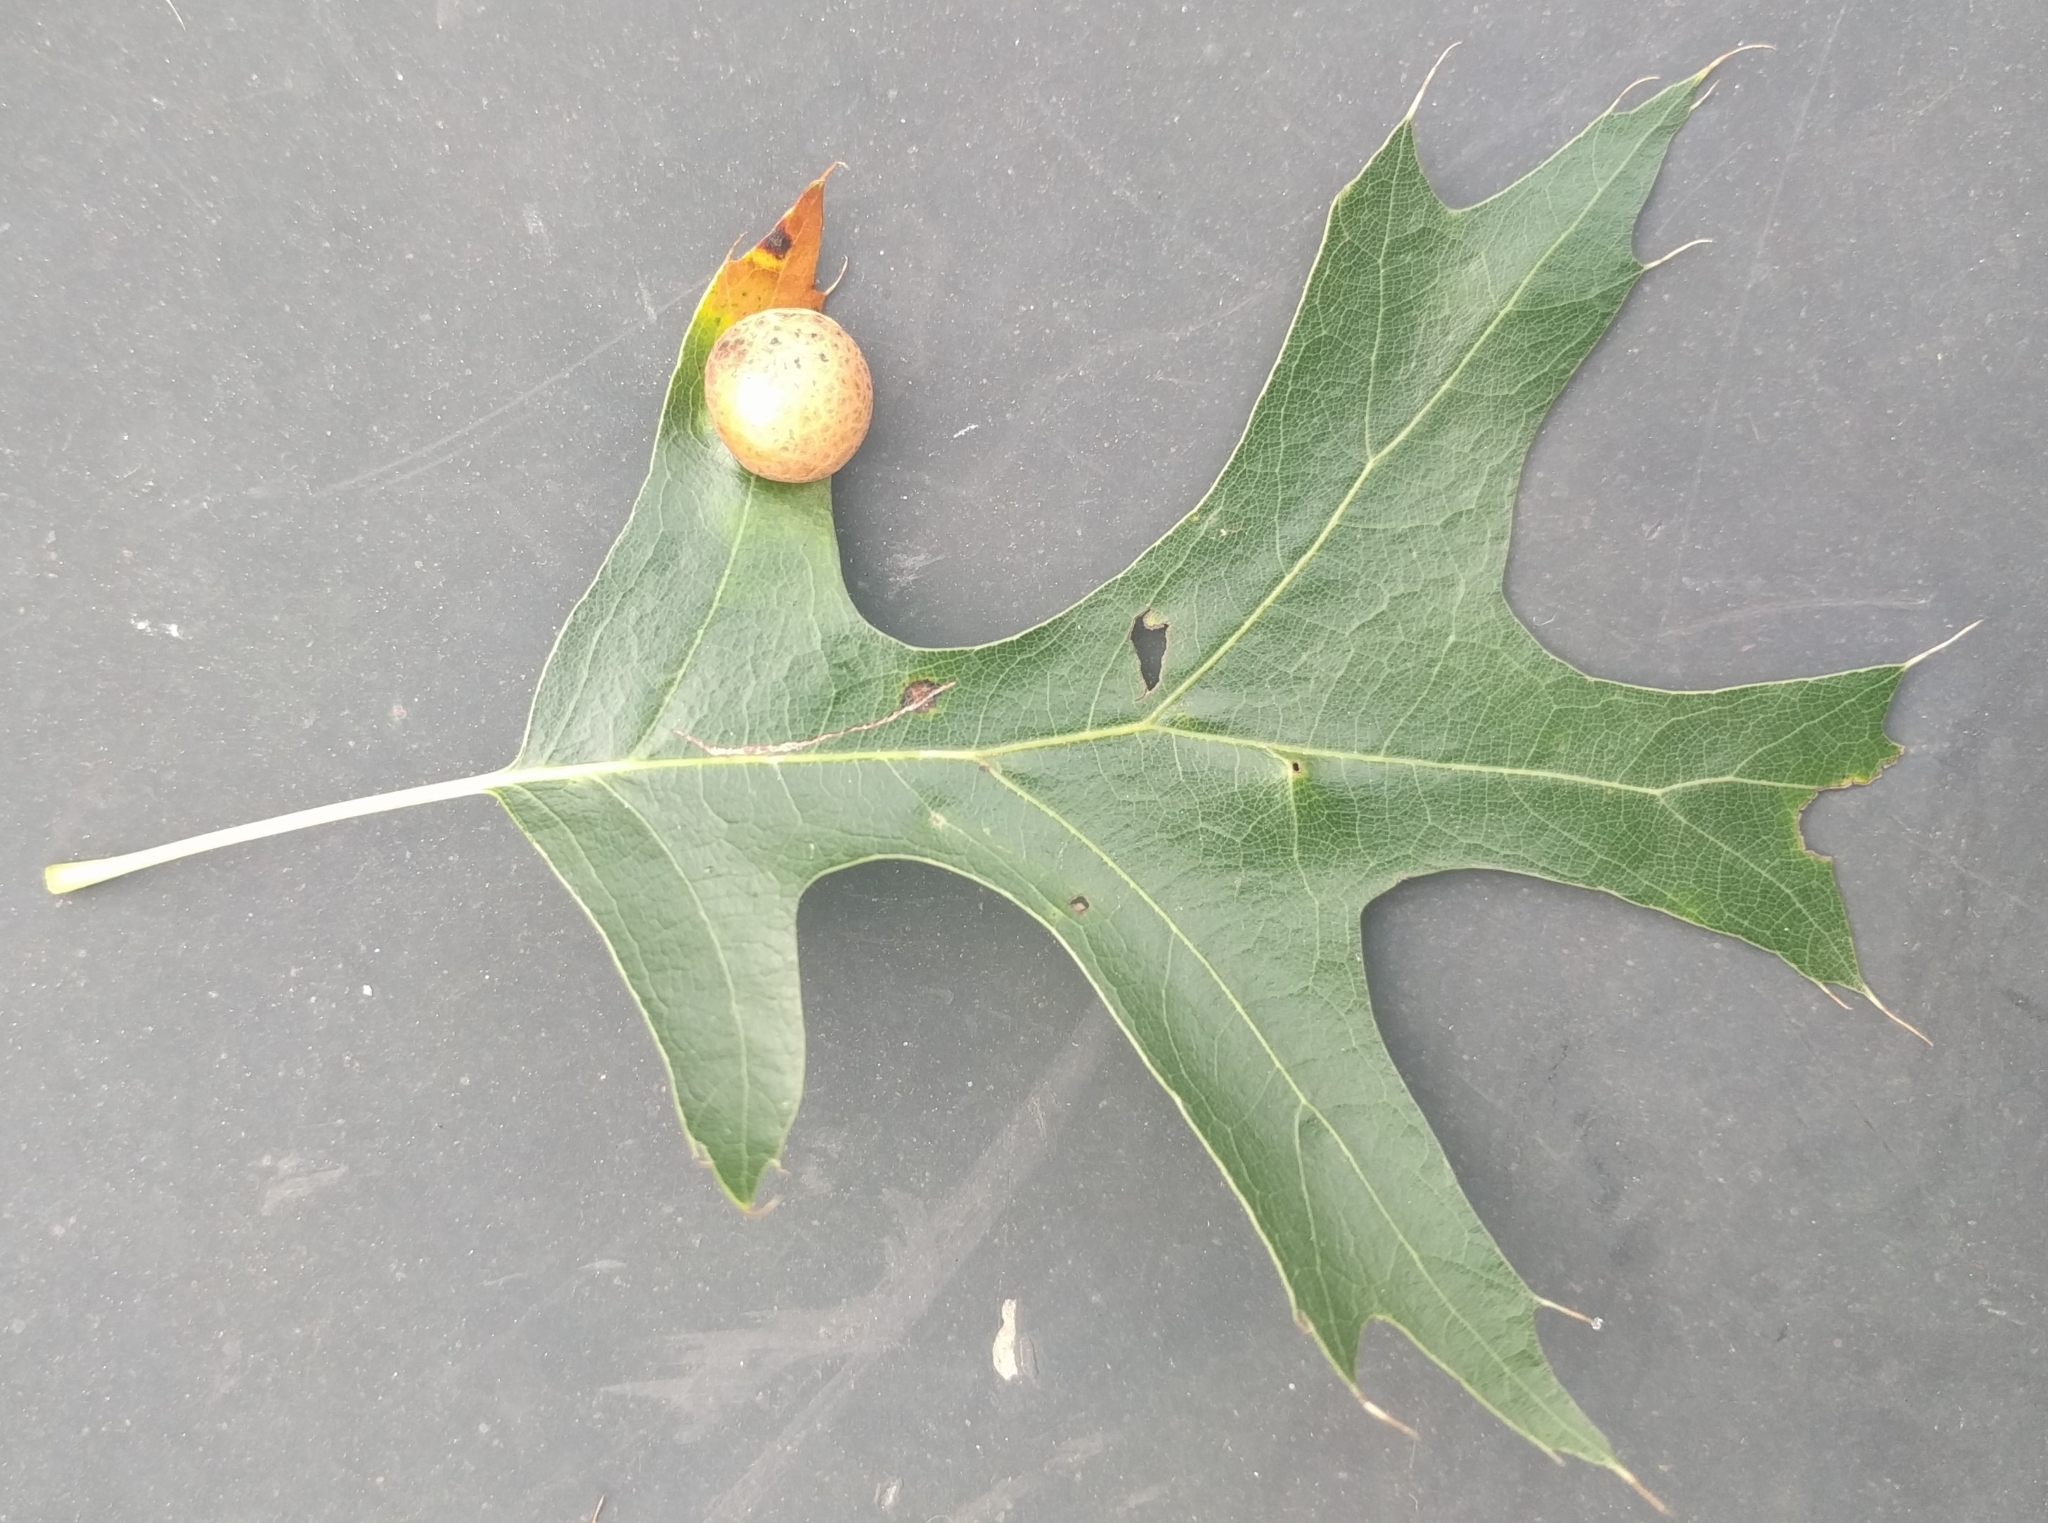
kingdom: Animalia
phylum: Arthropoda
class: Insecta
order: Diptera
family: Cecidomyiidae
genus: Polystepha
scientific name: Polystepha pilulae
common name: Oak leaf gall midge
